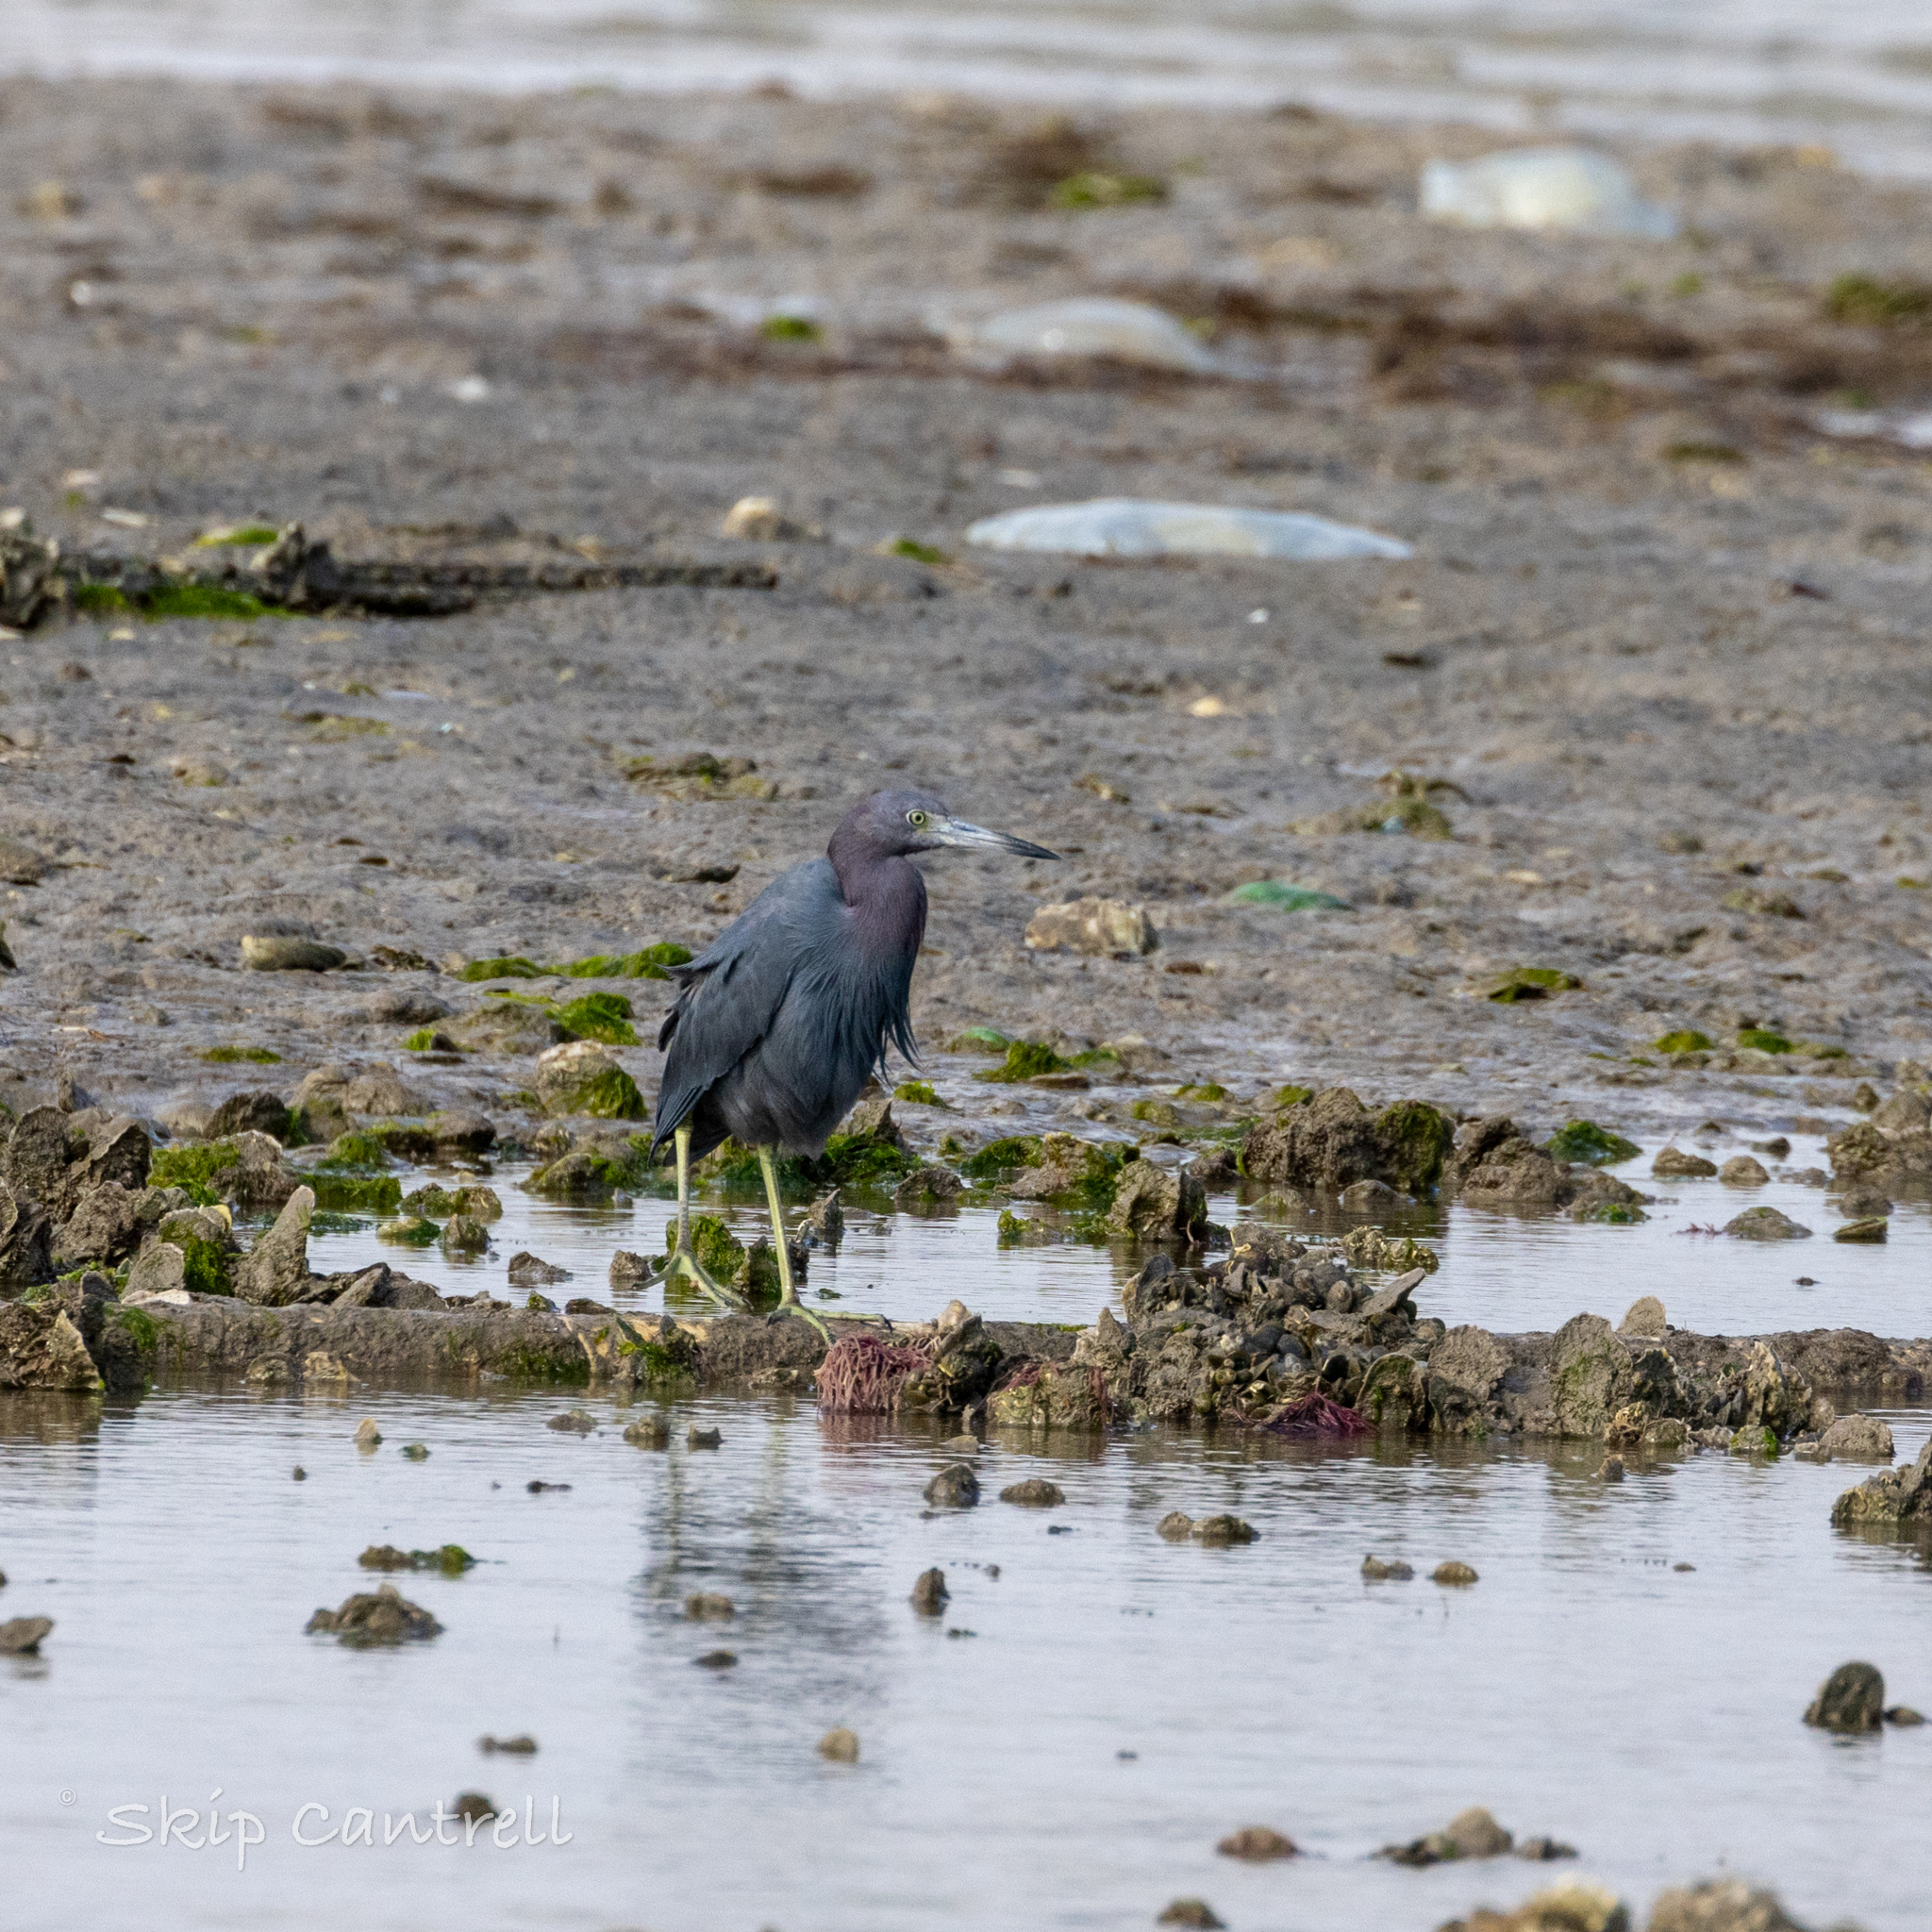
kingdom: Animalia
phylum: Chordata
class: Aves
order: Pelecaniformes
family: Ardeidae
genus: Egretta
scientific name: Egretta caerulea
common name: Little blue heron
